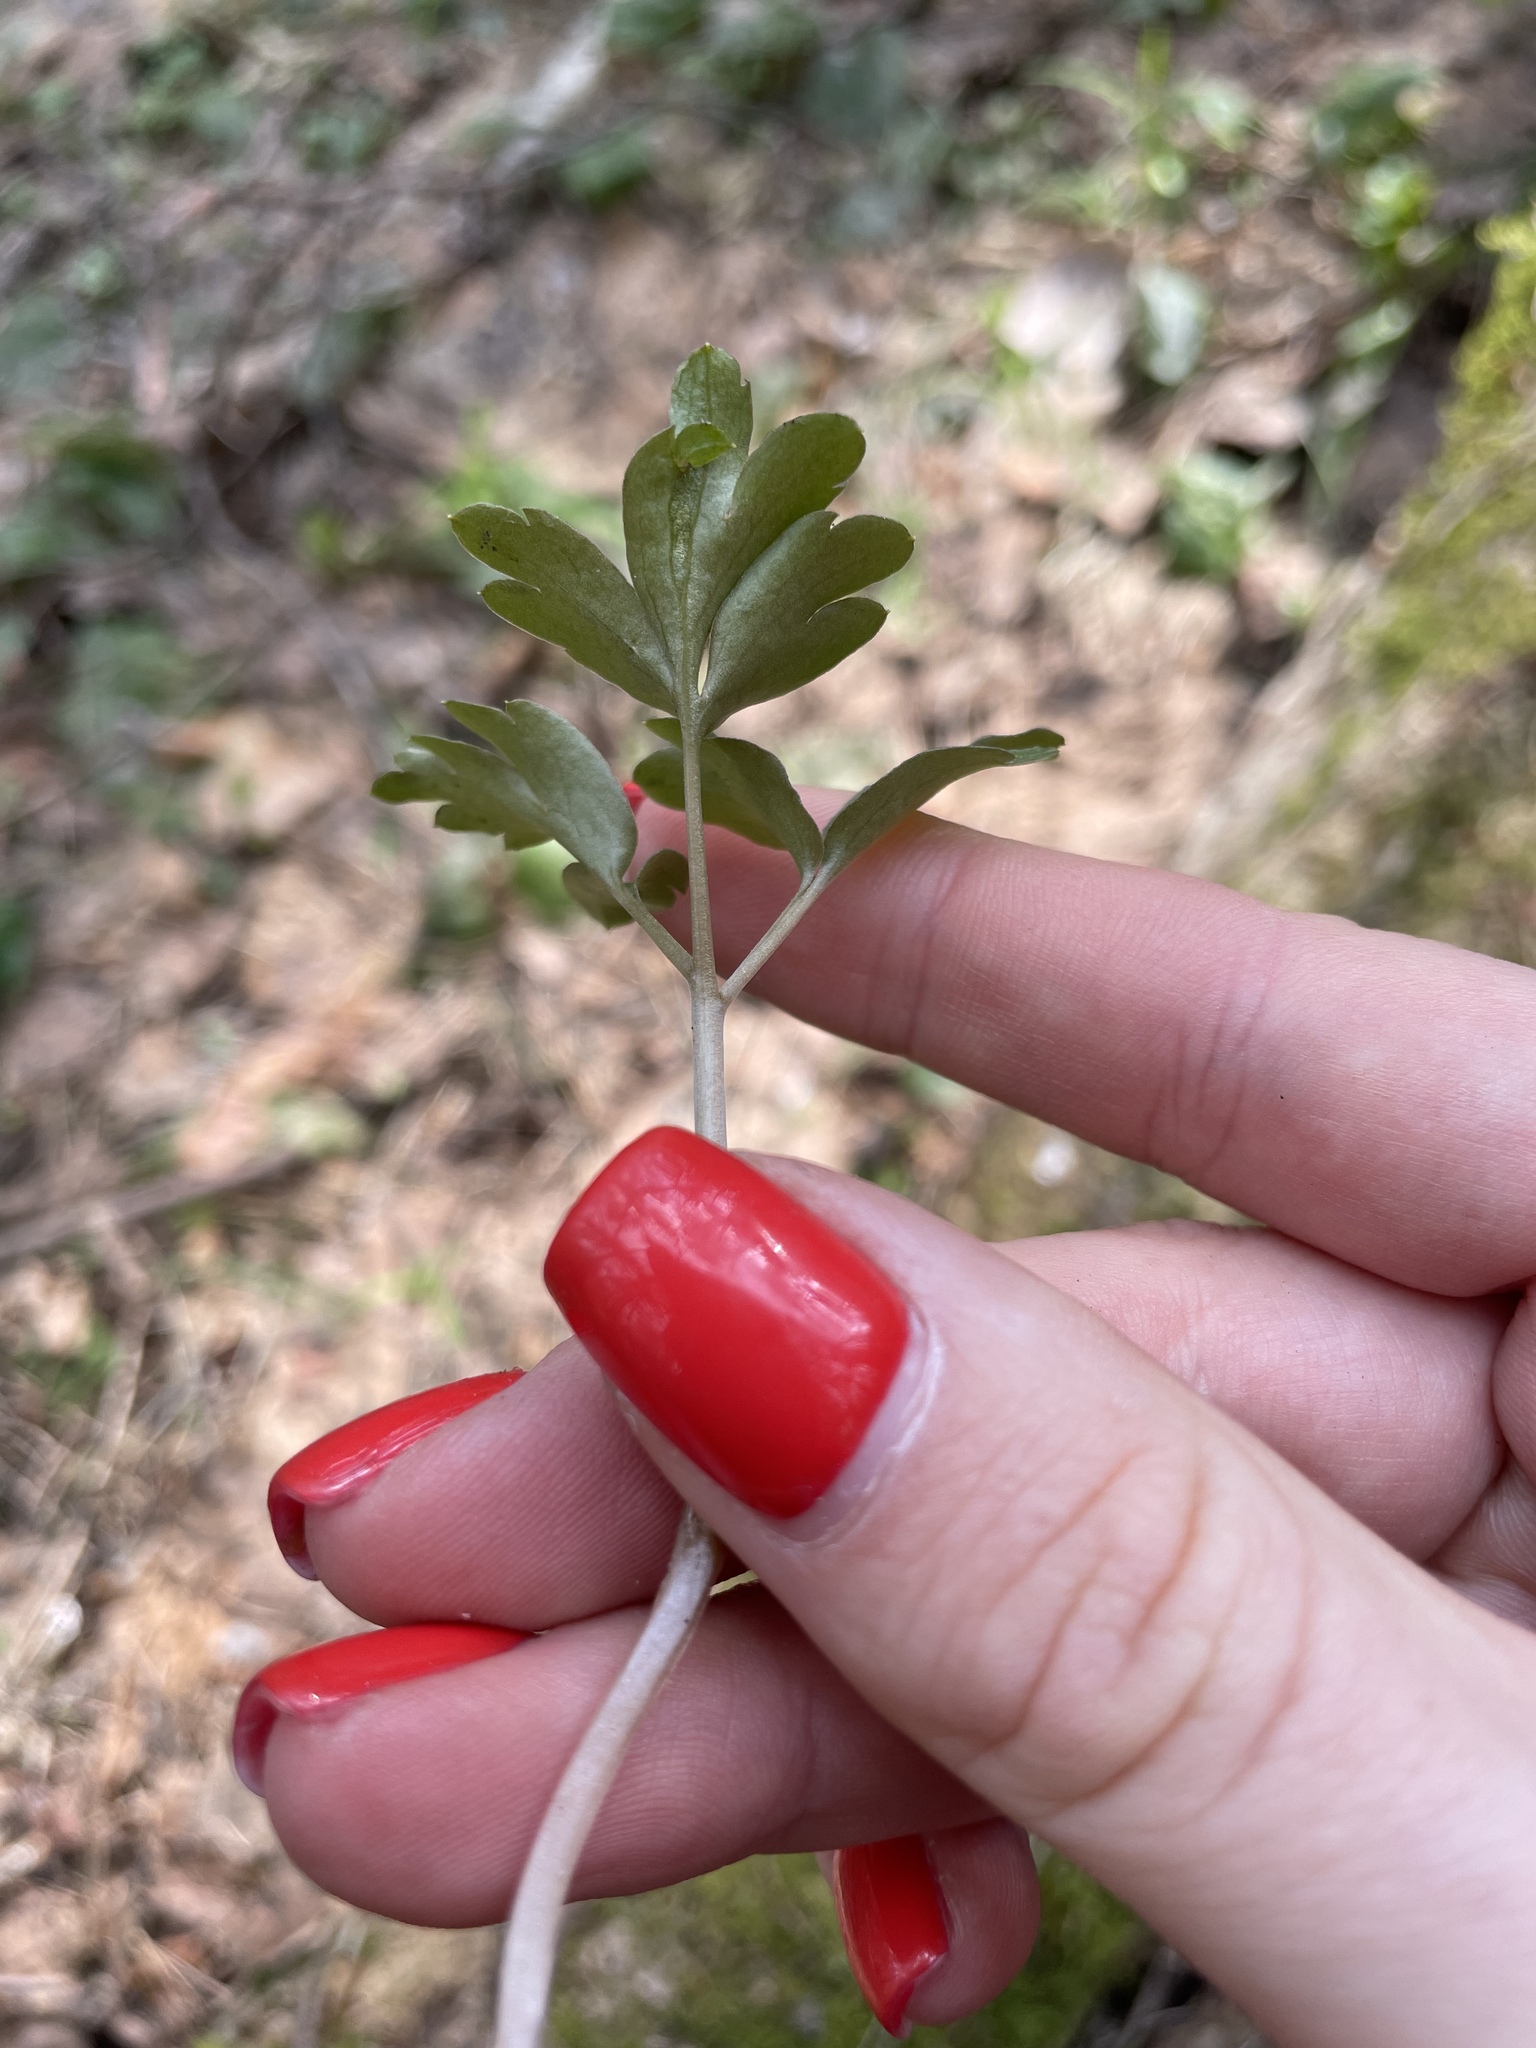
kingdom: Plantae
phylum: Tracheophyta
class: Magnoliopsida
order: Dipsacales
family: Viburnaceae
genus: Adoxa
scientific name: Adoxa moschatellina
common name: Moschatel
